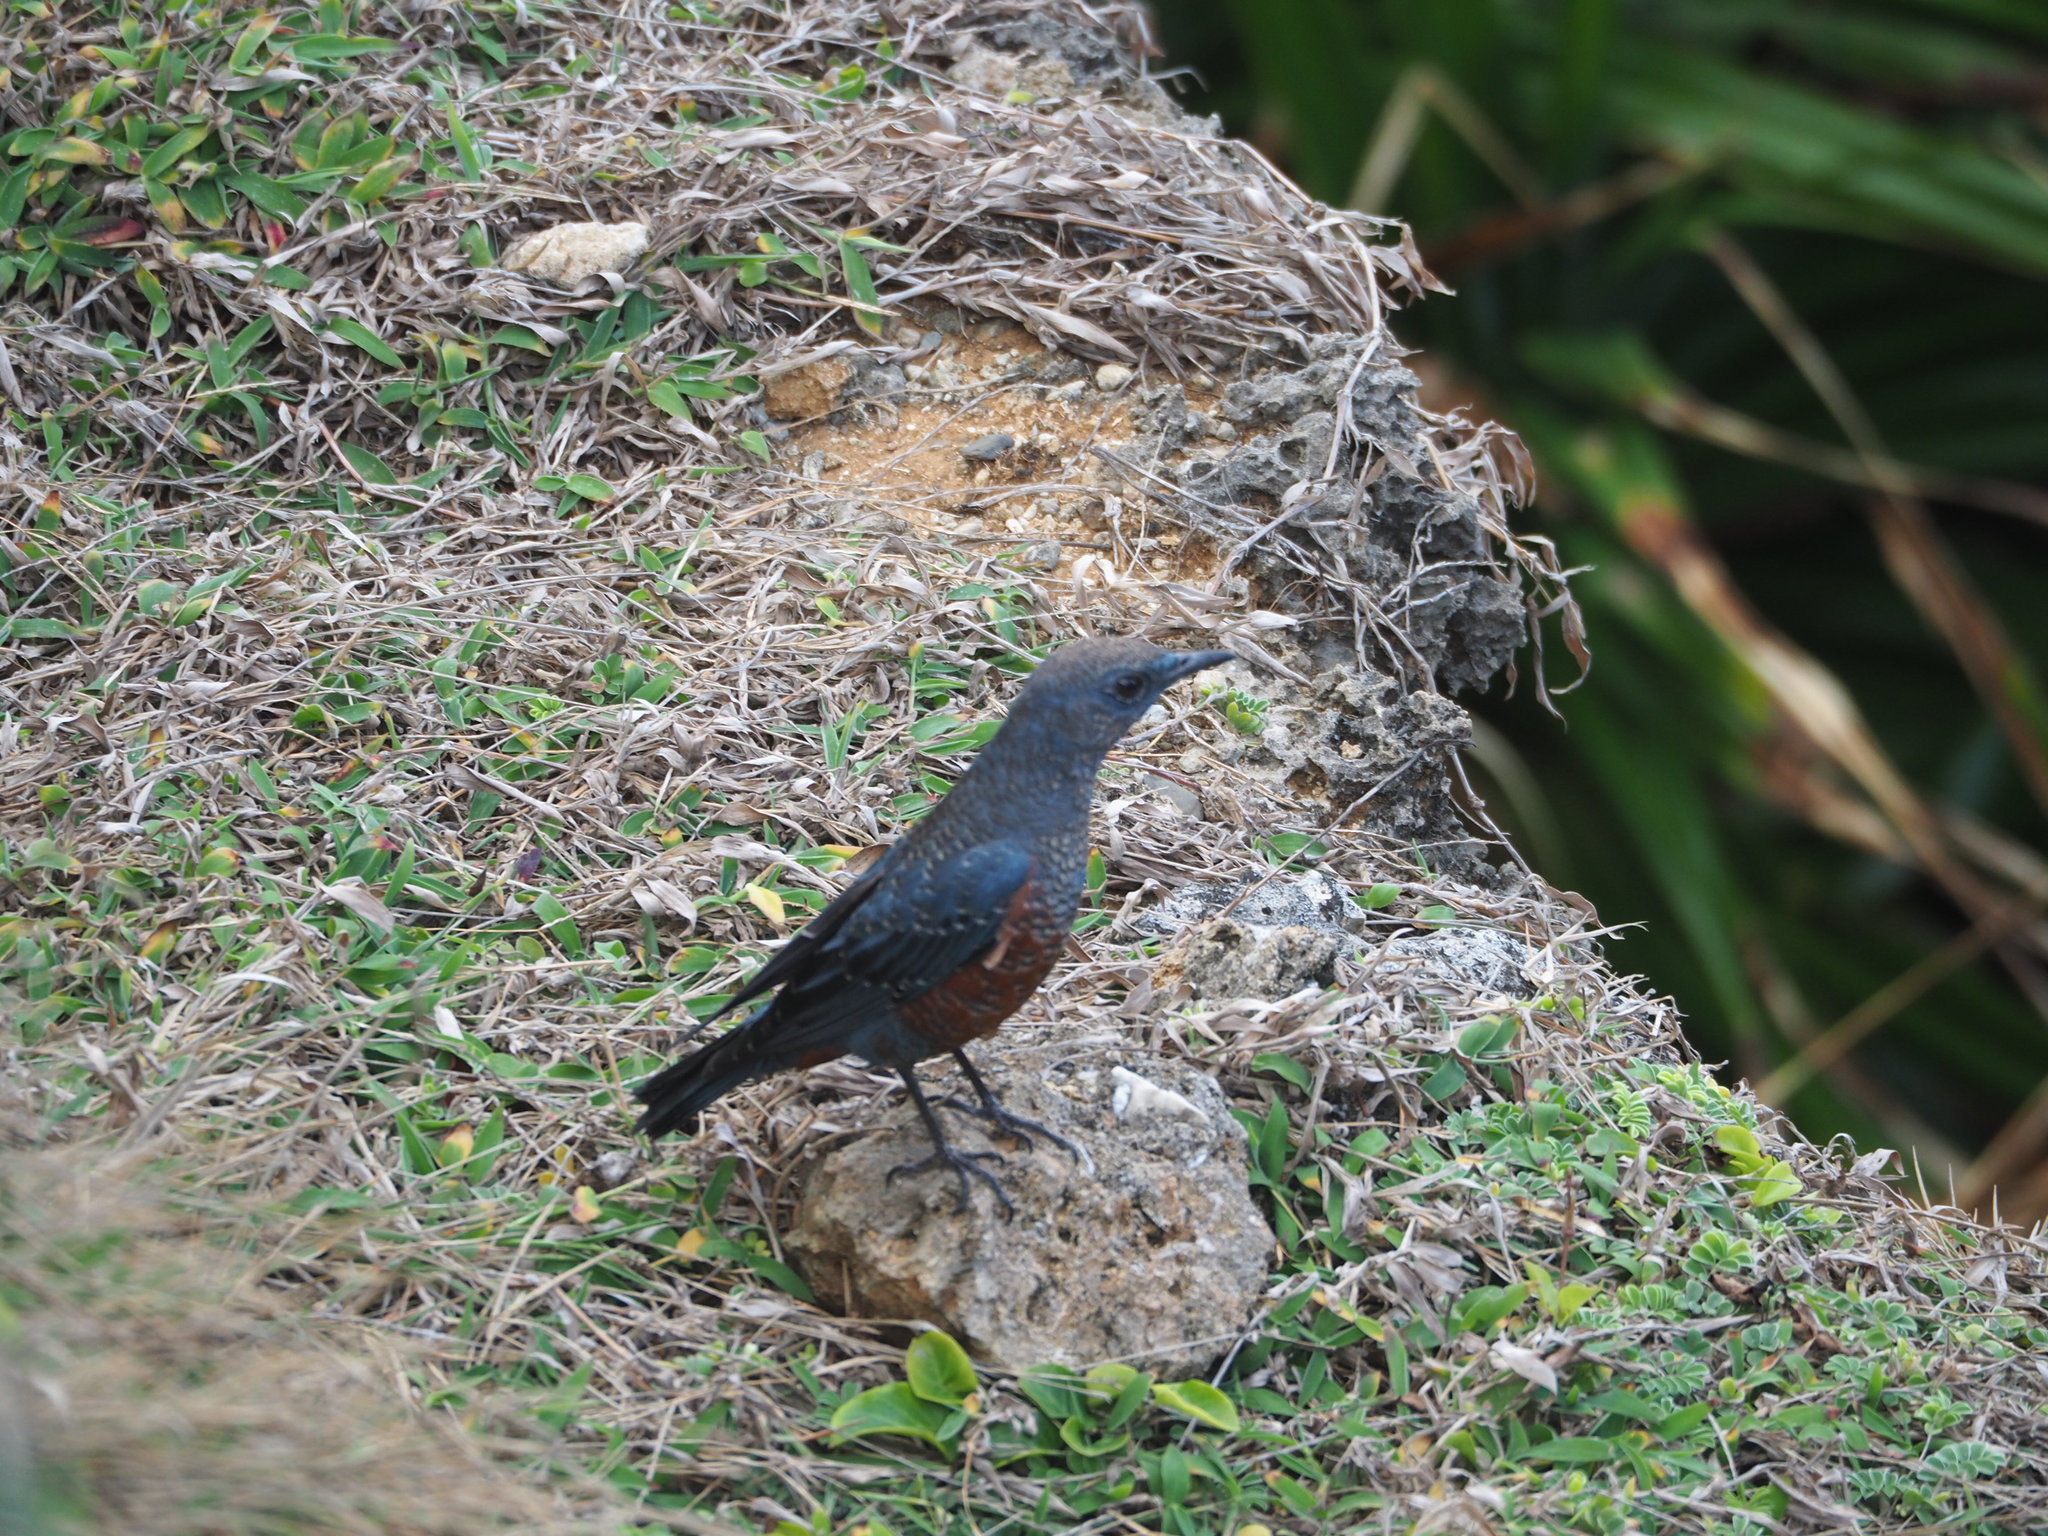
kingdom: Animalia
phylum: Chordata
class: Aves
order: Passeriformes
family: Muscicapidae
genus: Monticola
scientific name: Monticola solitarius
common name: Blue rock thrush
